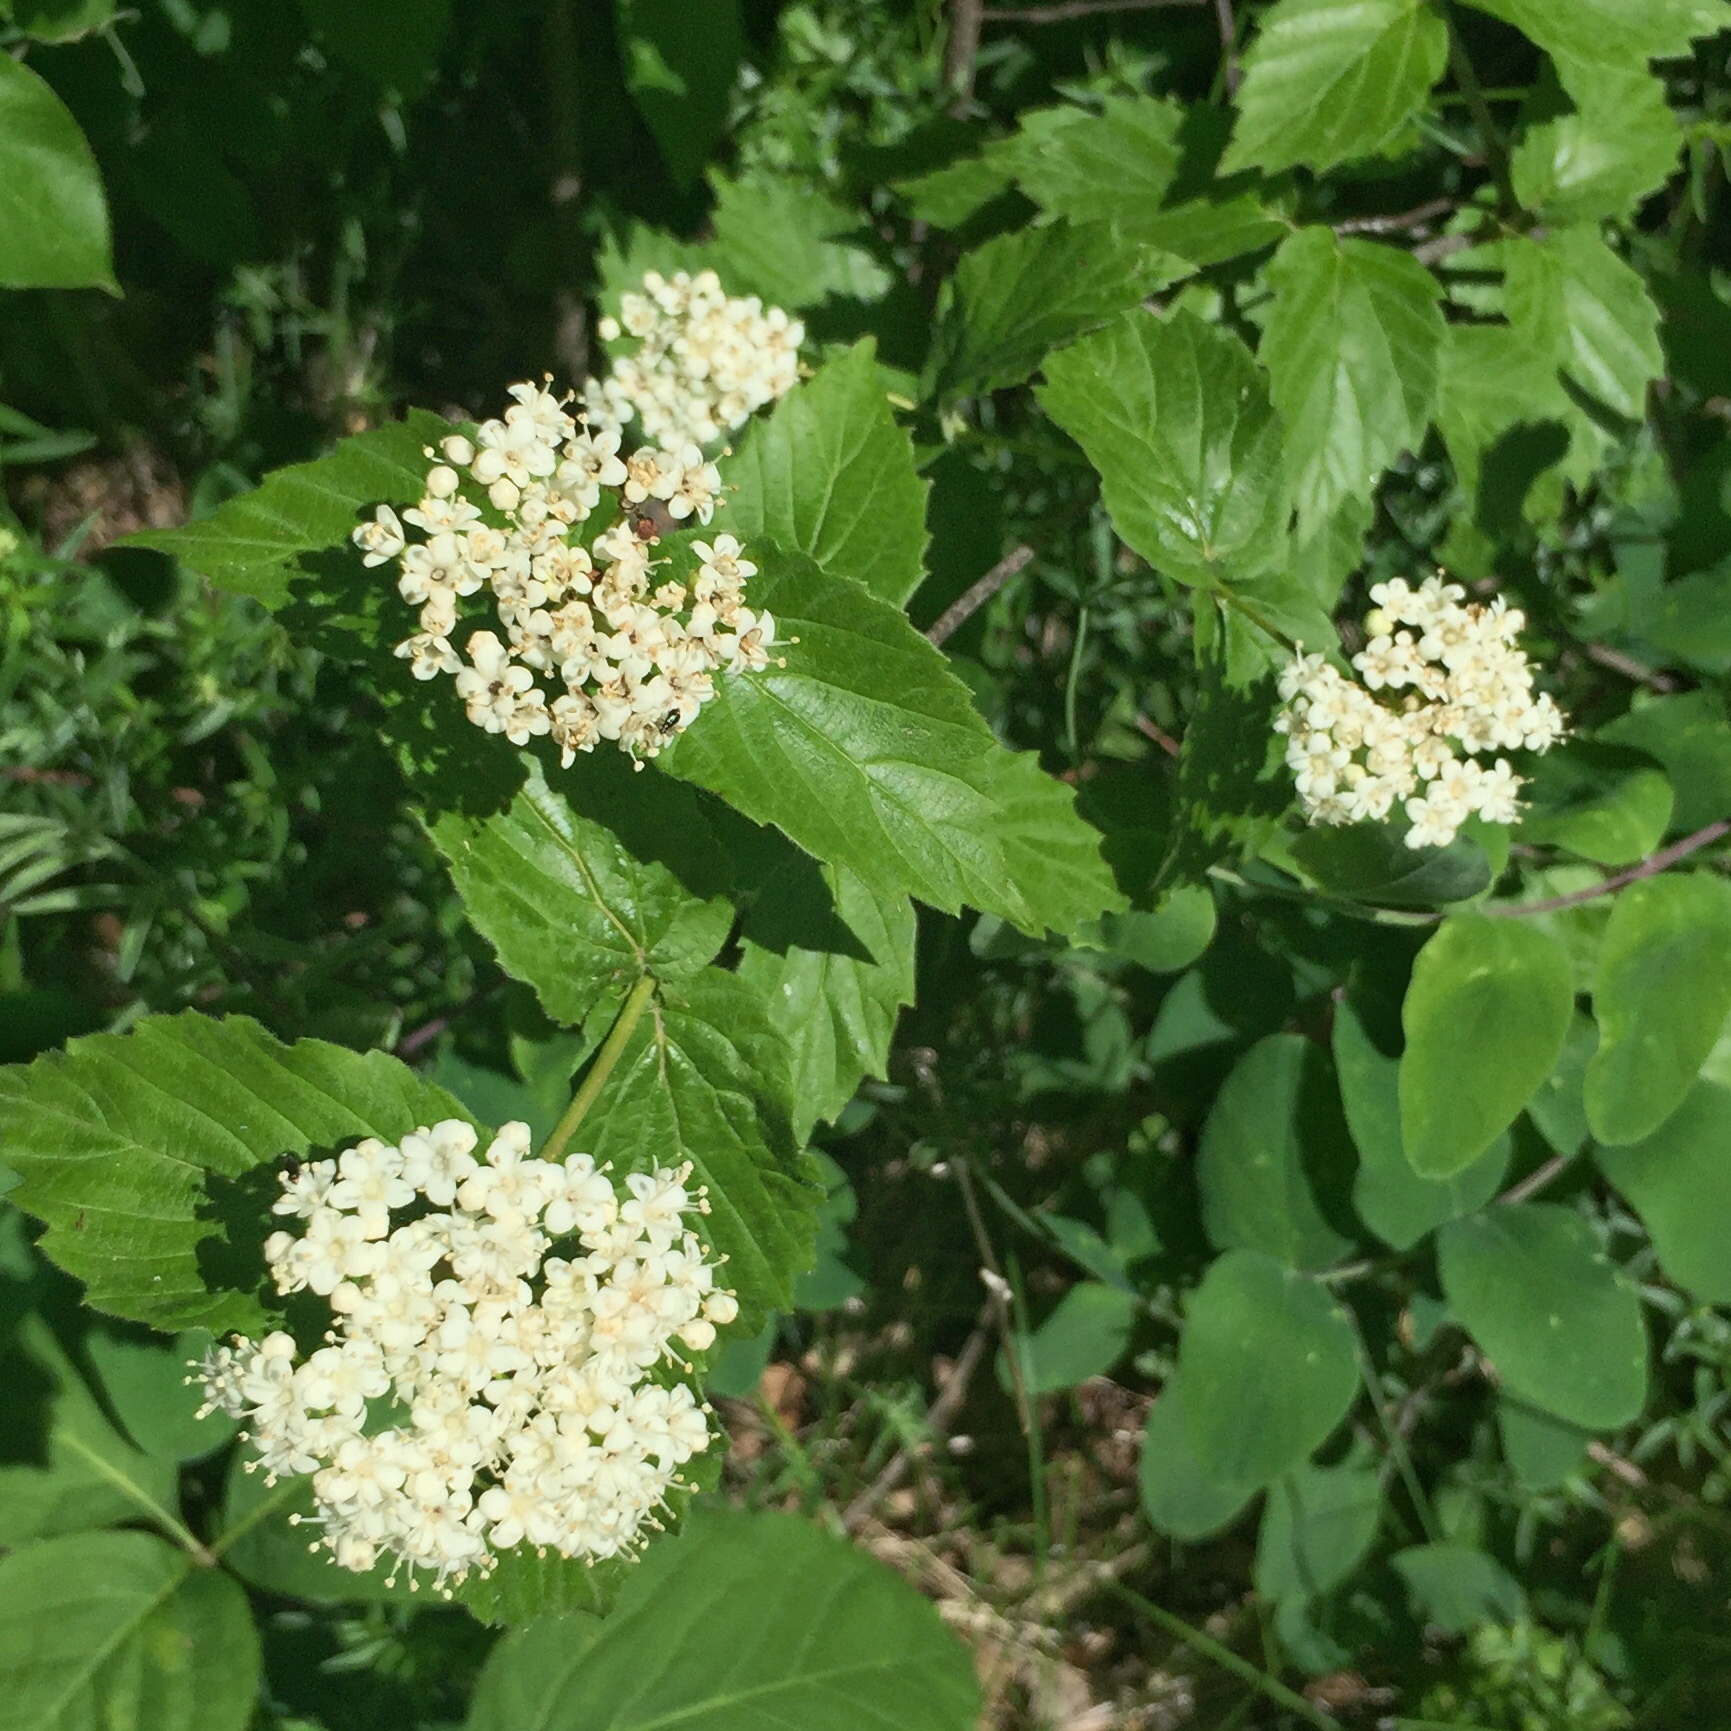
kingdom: Plantae
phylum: Tracheophyta
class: Magnoliopsida
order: Dipsacales
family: Viburnaceae
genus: Viburnum
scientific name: Viburnum rafinesqueanum
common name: Downy arrow-wood
